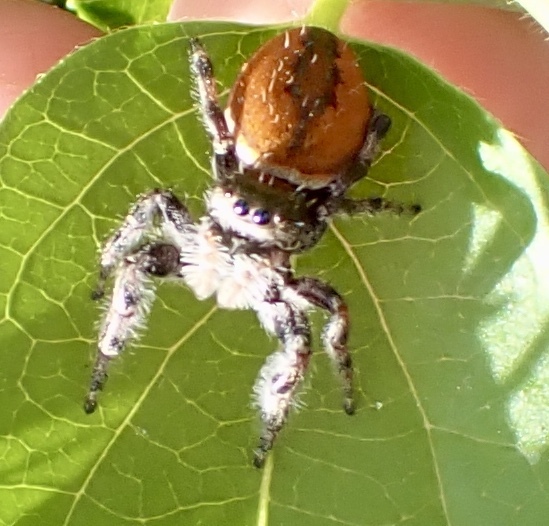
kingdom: Animalia
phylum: Arthropoda
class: Arachnida
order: Araneae
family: Salticidae
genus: Phidippus
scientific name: Phidippus clarus
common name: Brilliant jumping spider
